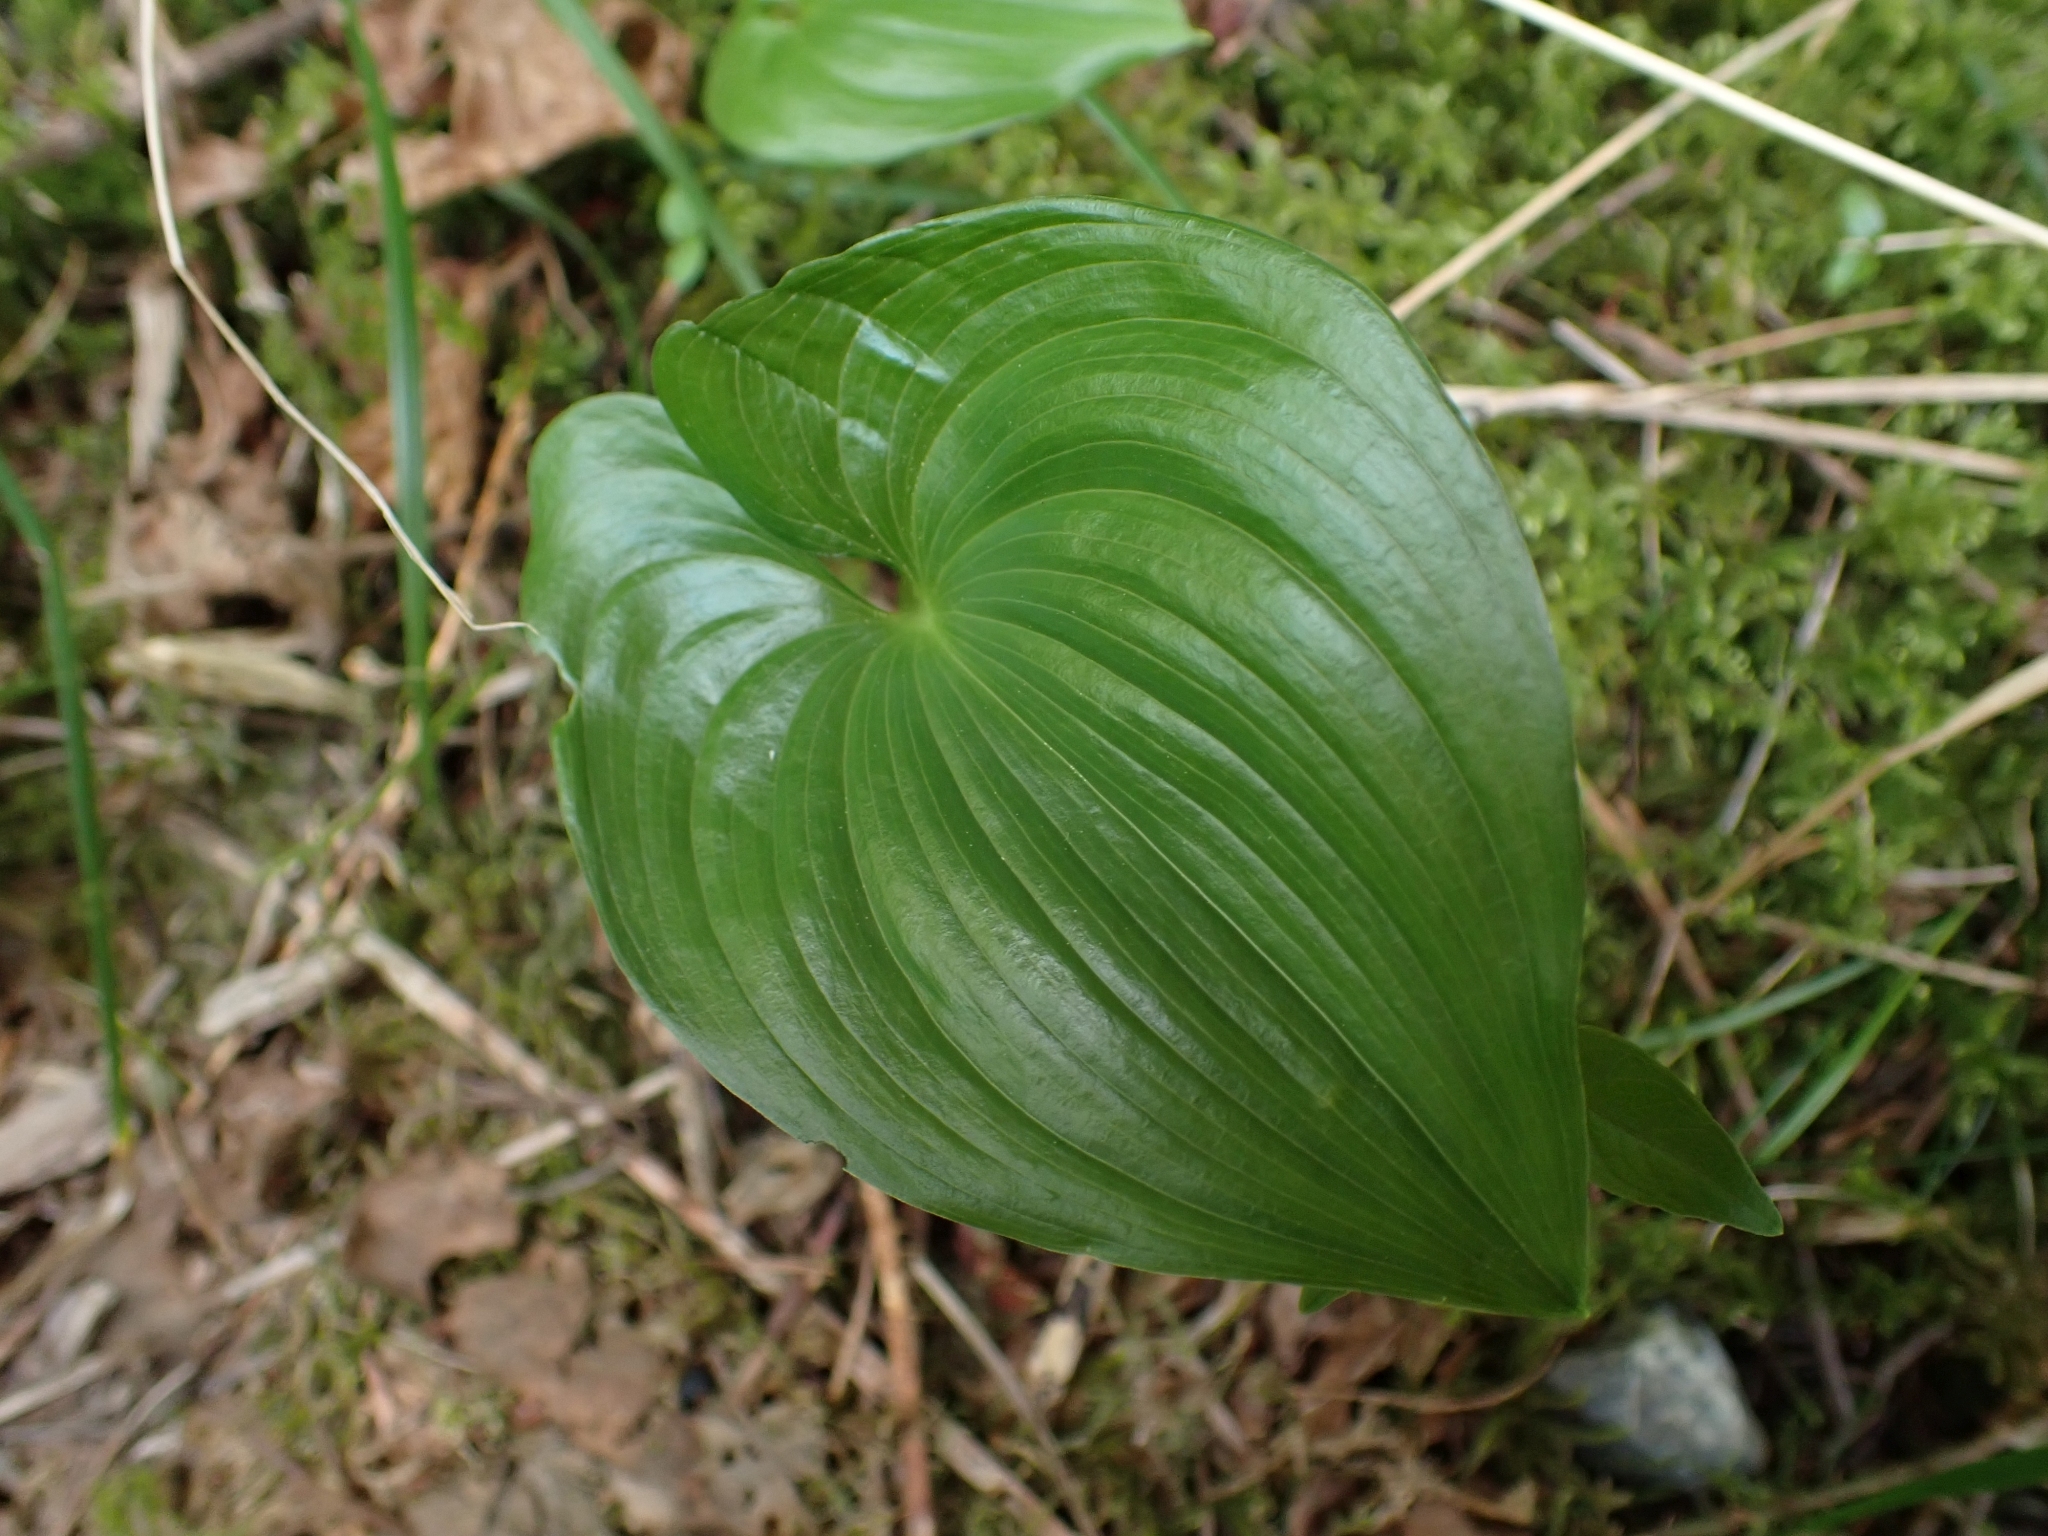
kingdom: Plantae
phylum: Tracheophyta
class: Liliopsida
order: Asparagales
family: Asparagaceae
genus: Maianthemum
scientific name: Maianthemum dilatatum
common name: False lily-of-the-valley
